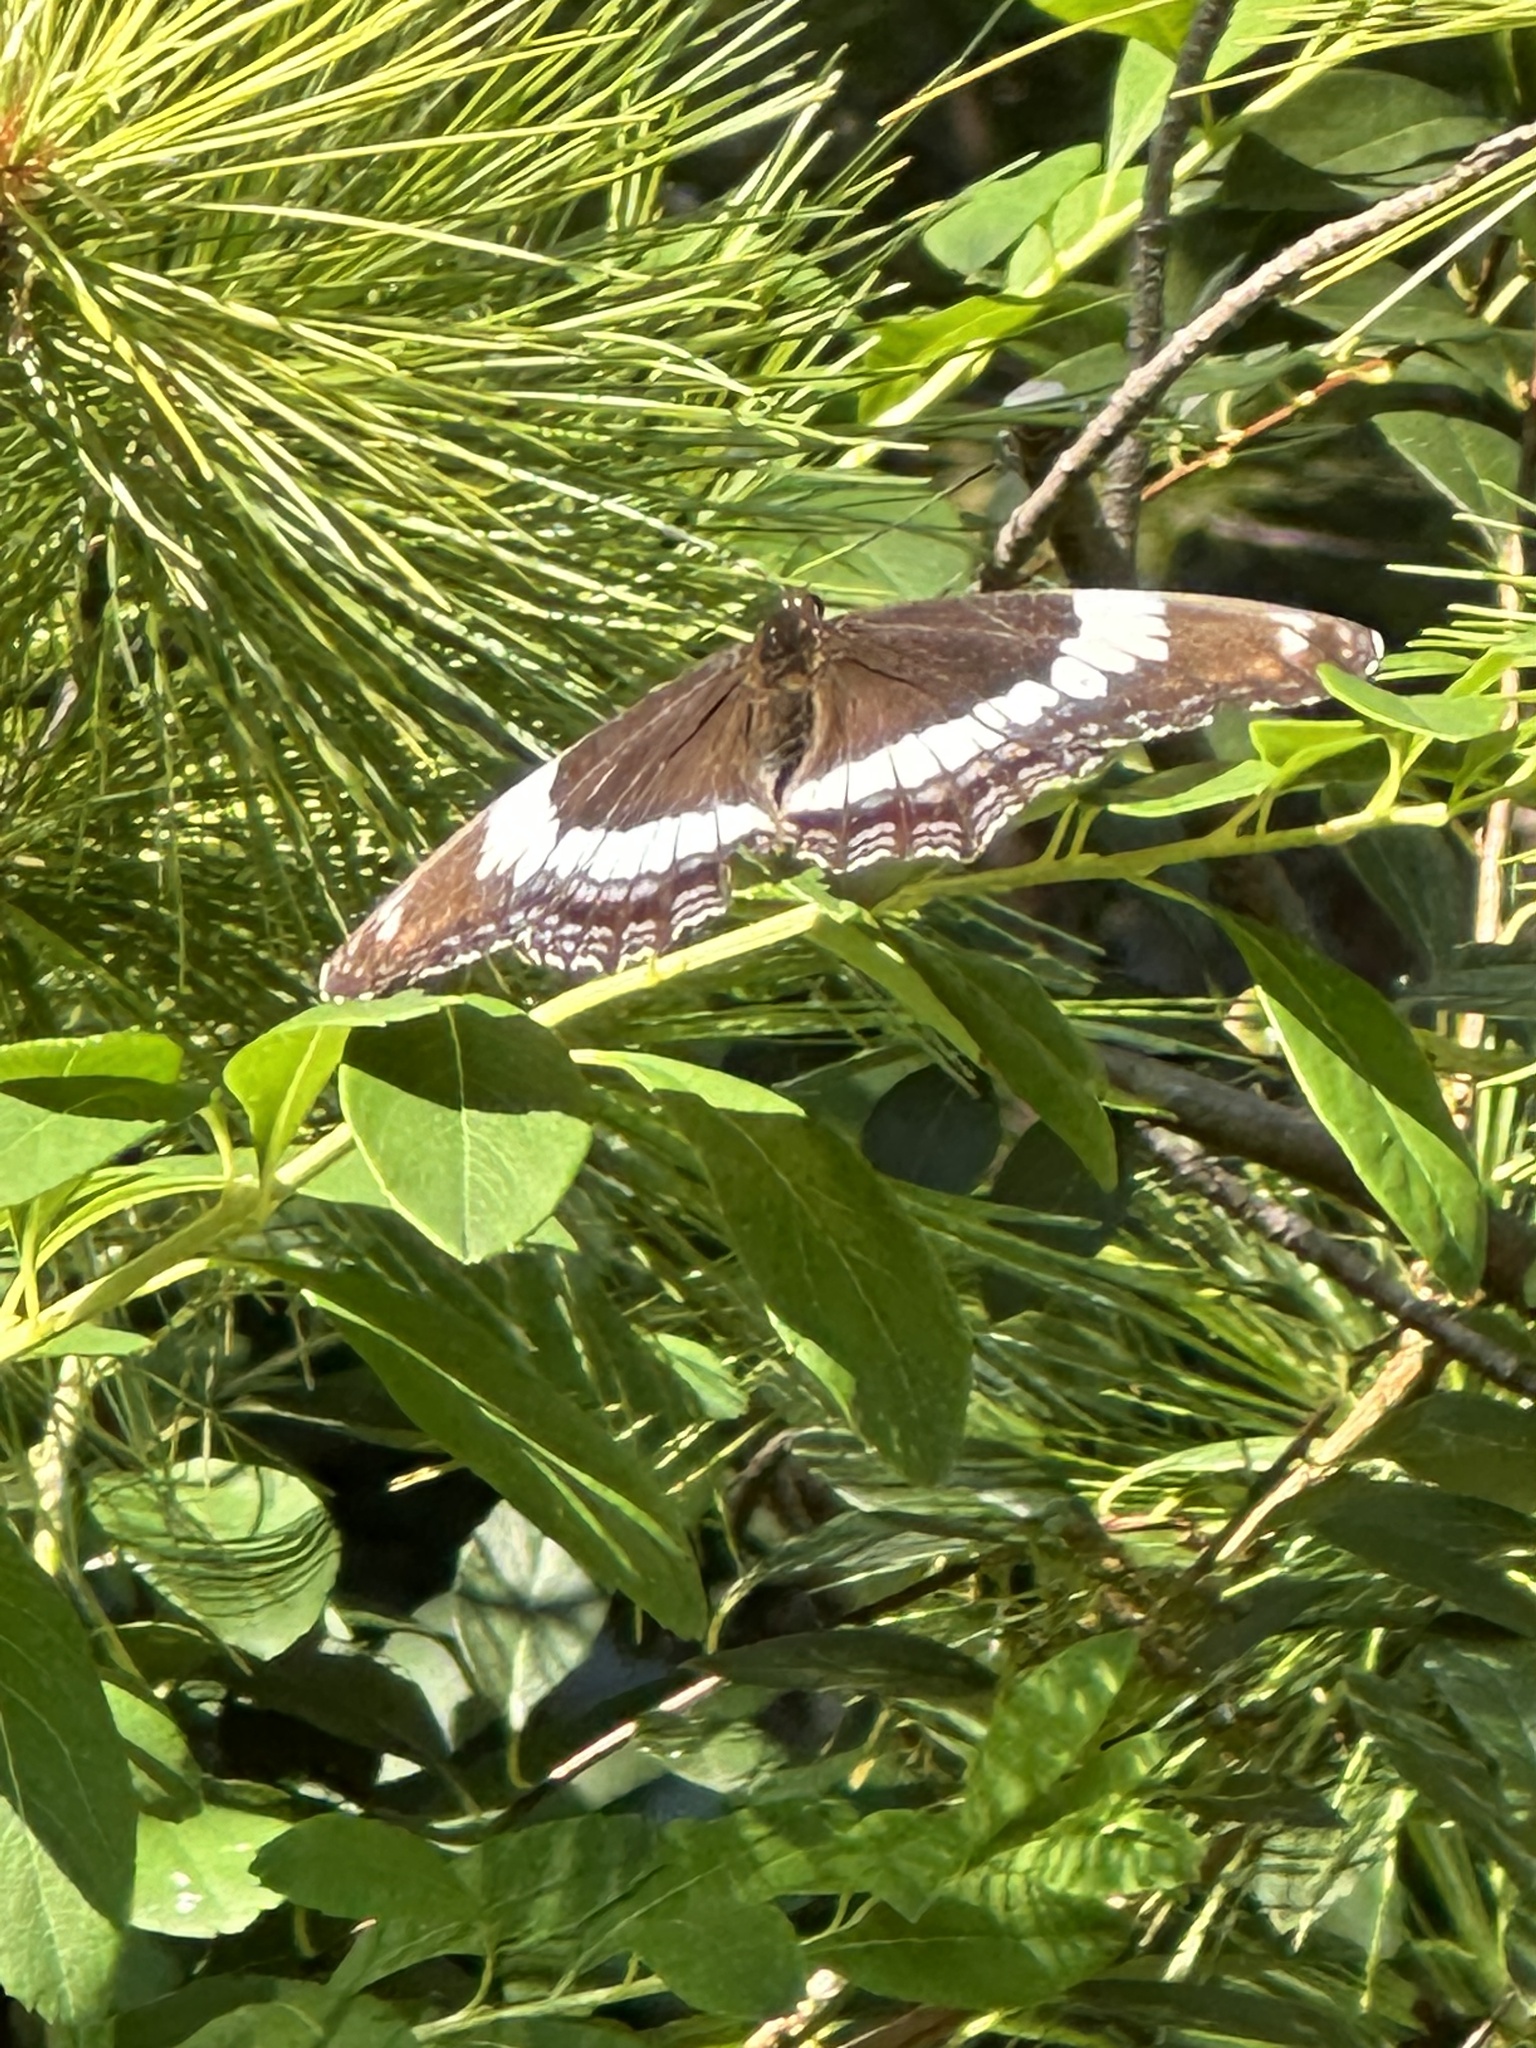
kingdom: Animalia
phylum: Arthropoda
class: Insecta
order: Lepidoptera
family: Nymphalidae
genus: Limenitis
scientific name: Limenitis arthemis
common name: Red-spotted admiral
